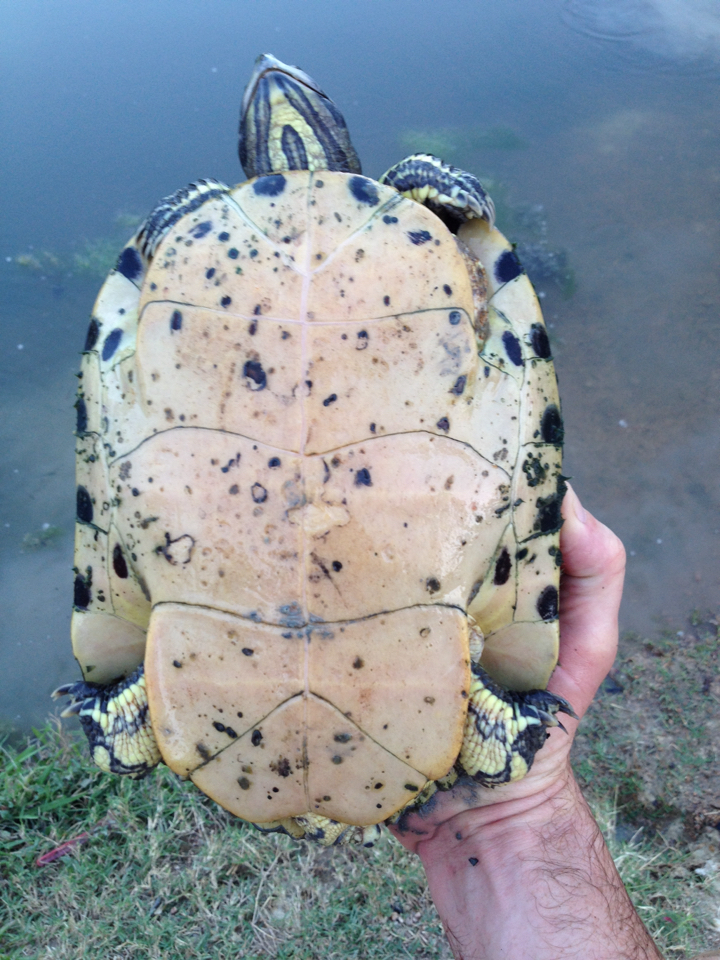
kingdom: Animalia
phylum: Chordata
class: Testudines
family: Emydidae
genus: Trachemys
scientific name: Trachemys scripta
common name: Slider
